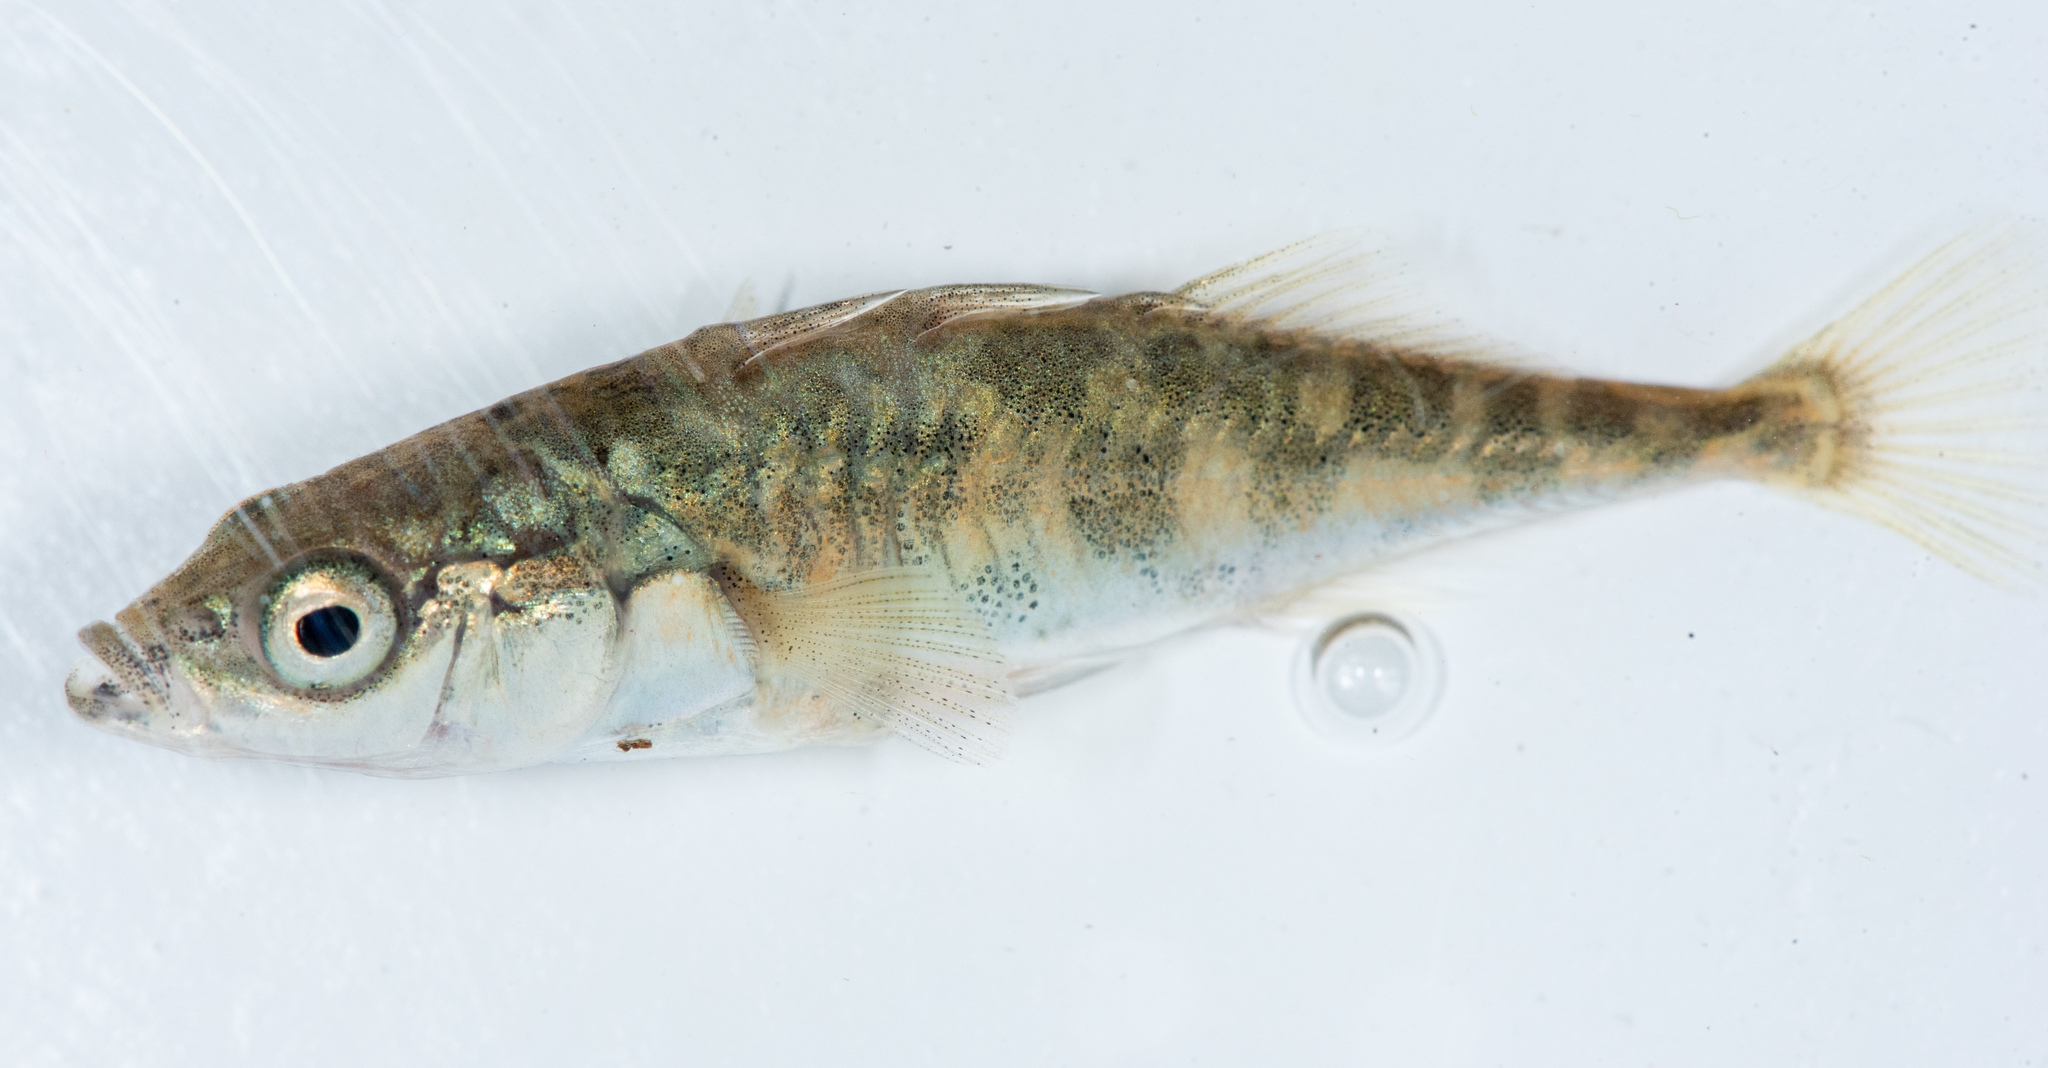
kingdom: Animalia
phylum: Chordata
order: Gasterosteiformes
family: Gasterosteidae
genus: Gasterosteus
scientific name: Gasterosteus aculeatus
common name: Three-spined stickleback
